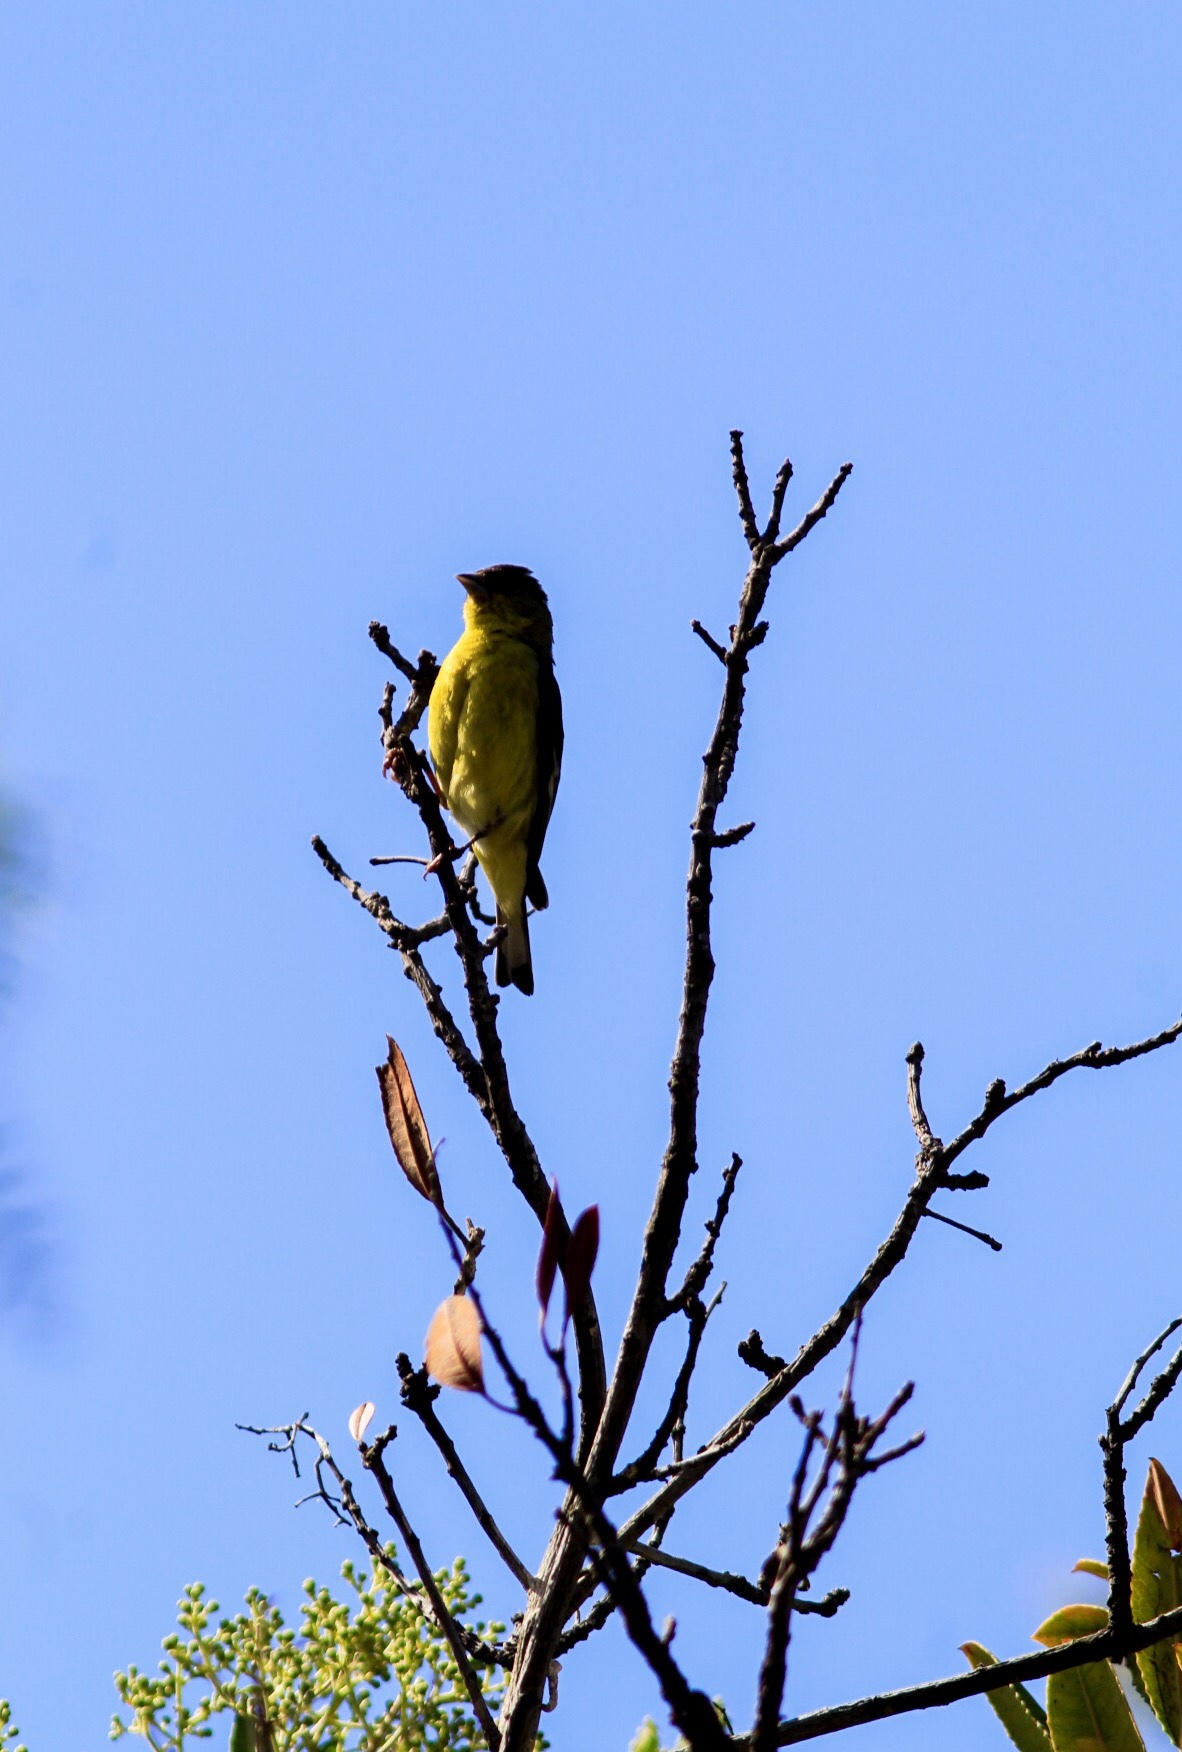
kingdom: Animalia
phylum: Chordata
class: Aves
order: Passeriformes
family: Fringillidae
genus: Spinus
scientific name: Spinus psaltria
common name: Lesser goldfinch
